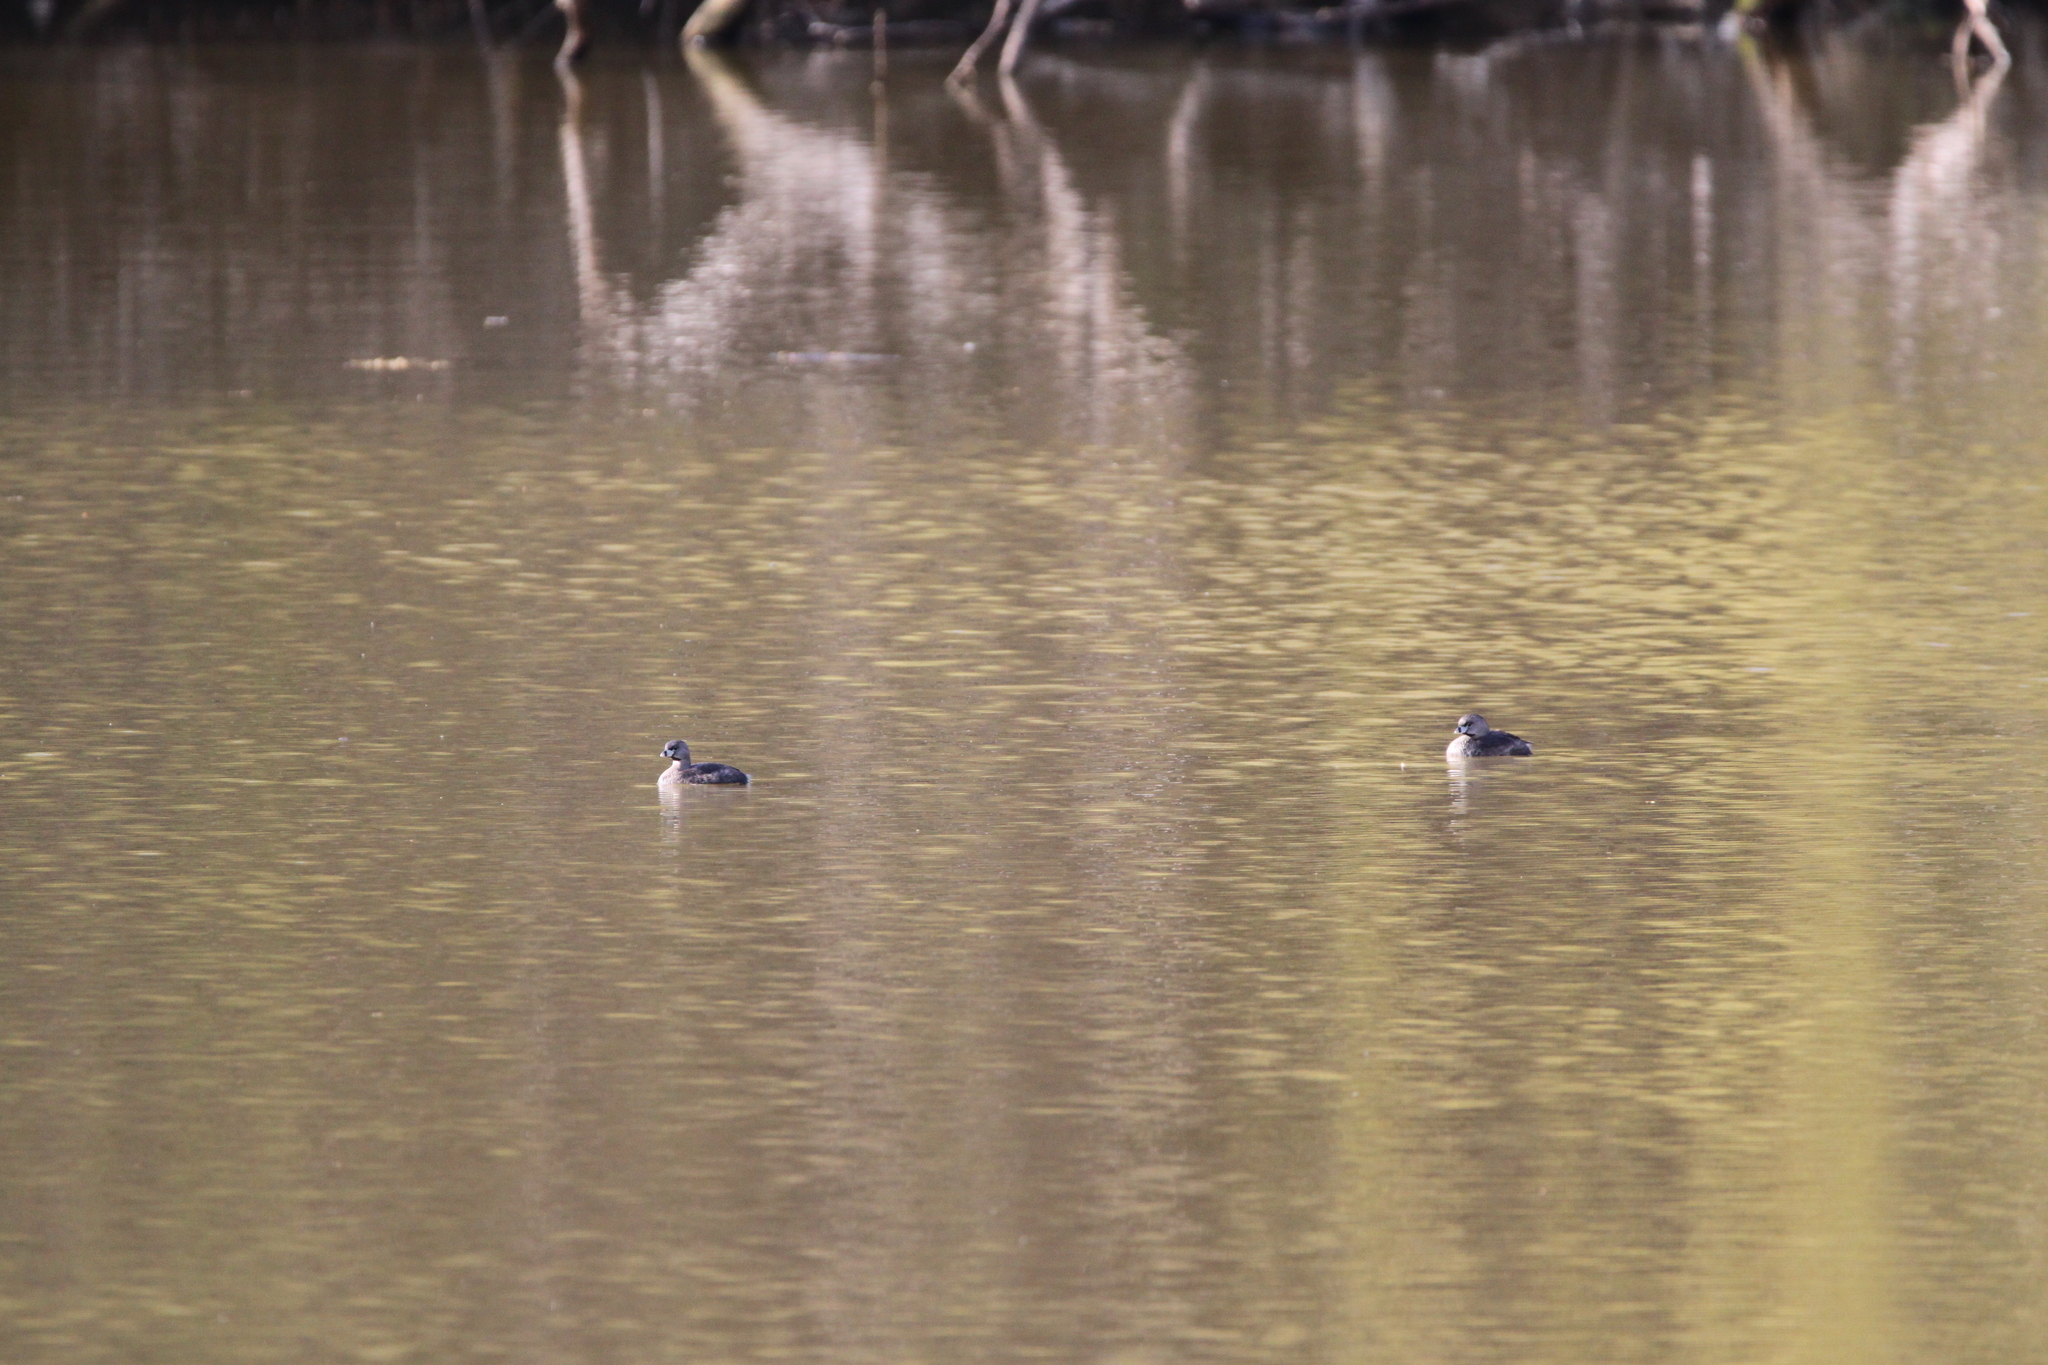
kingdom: Animalia
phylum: Chordata
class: Aves
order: Podicipediformes
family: Podicipedidae
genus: Podilymbus
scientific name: Podilymbus podiceps
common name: Pied-billed grebe
